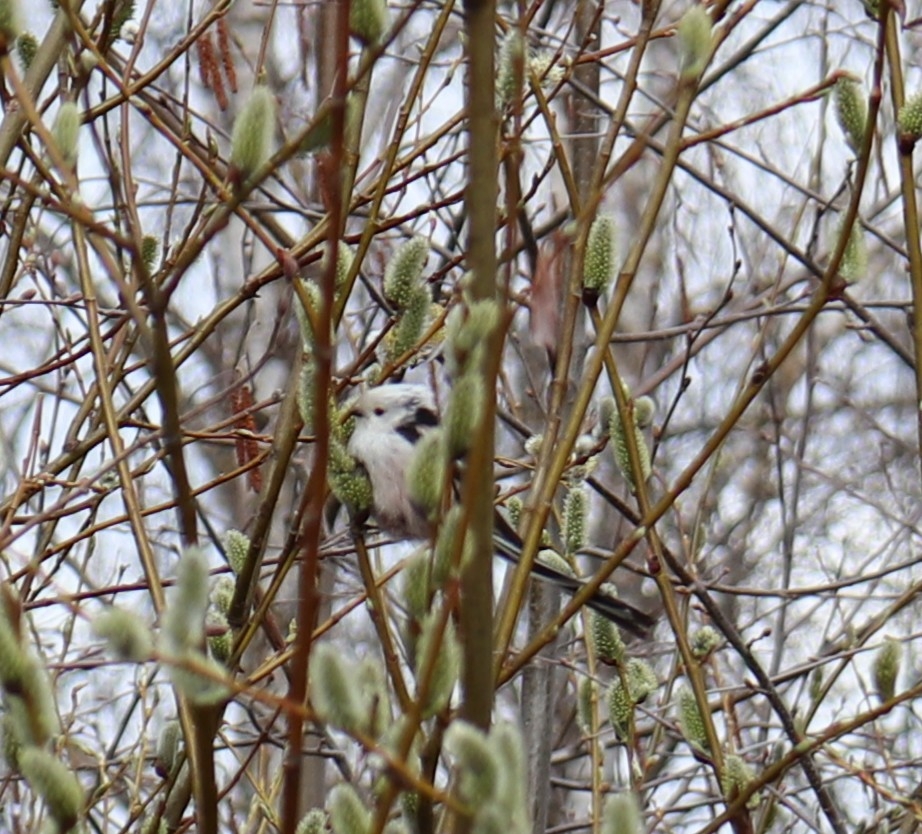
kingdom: Animalia
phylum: Chordata
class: Aves
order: Passeriformes
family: Aegithalidae
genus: Aegithalos
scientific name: Aegithalos caudatus
